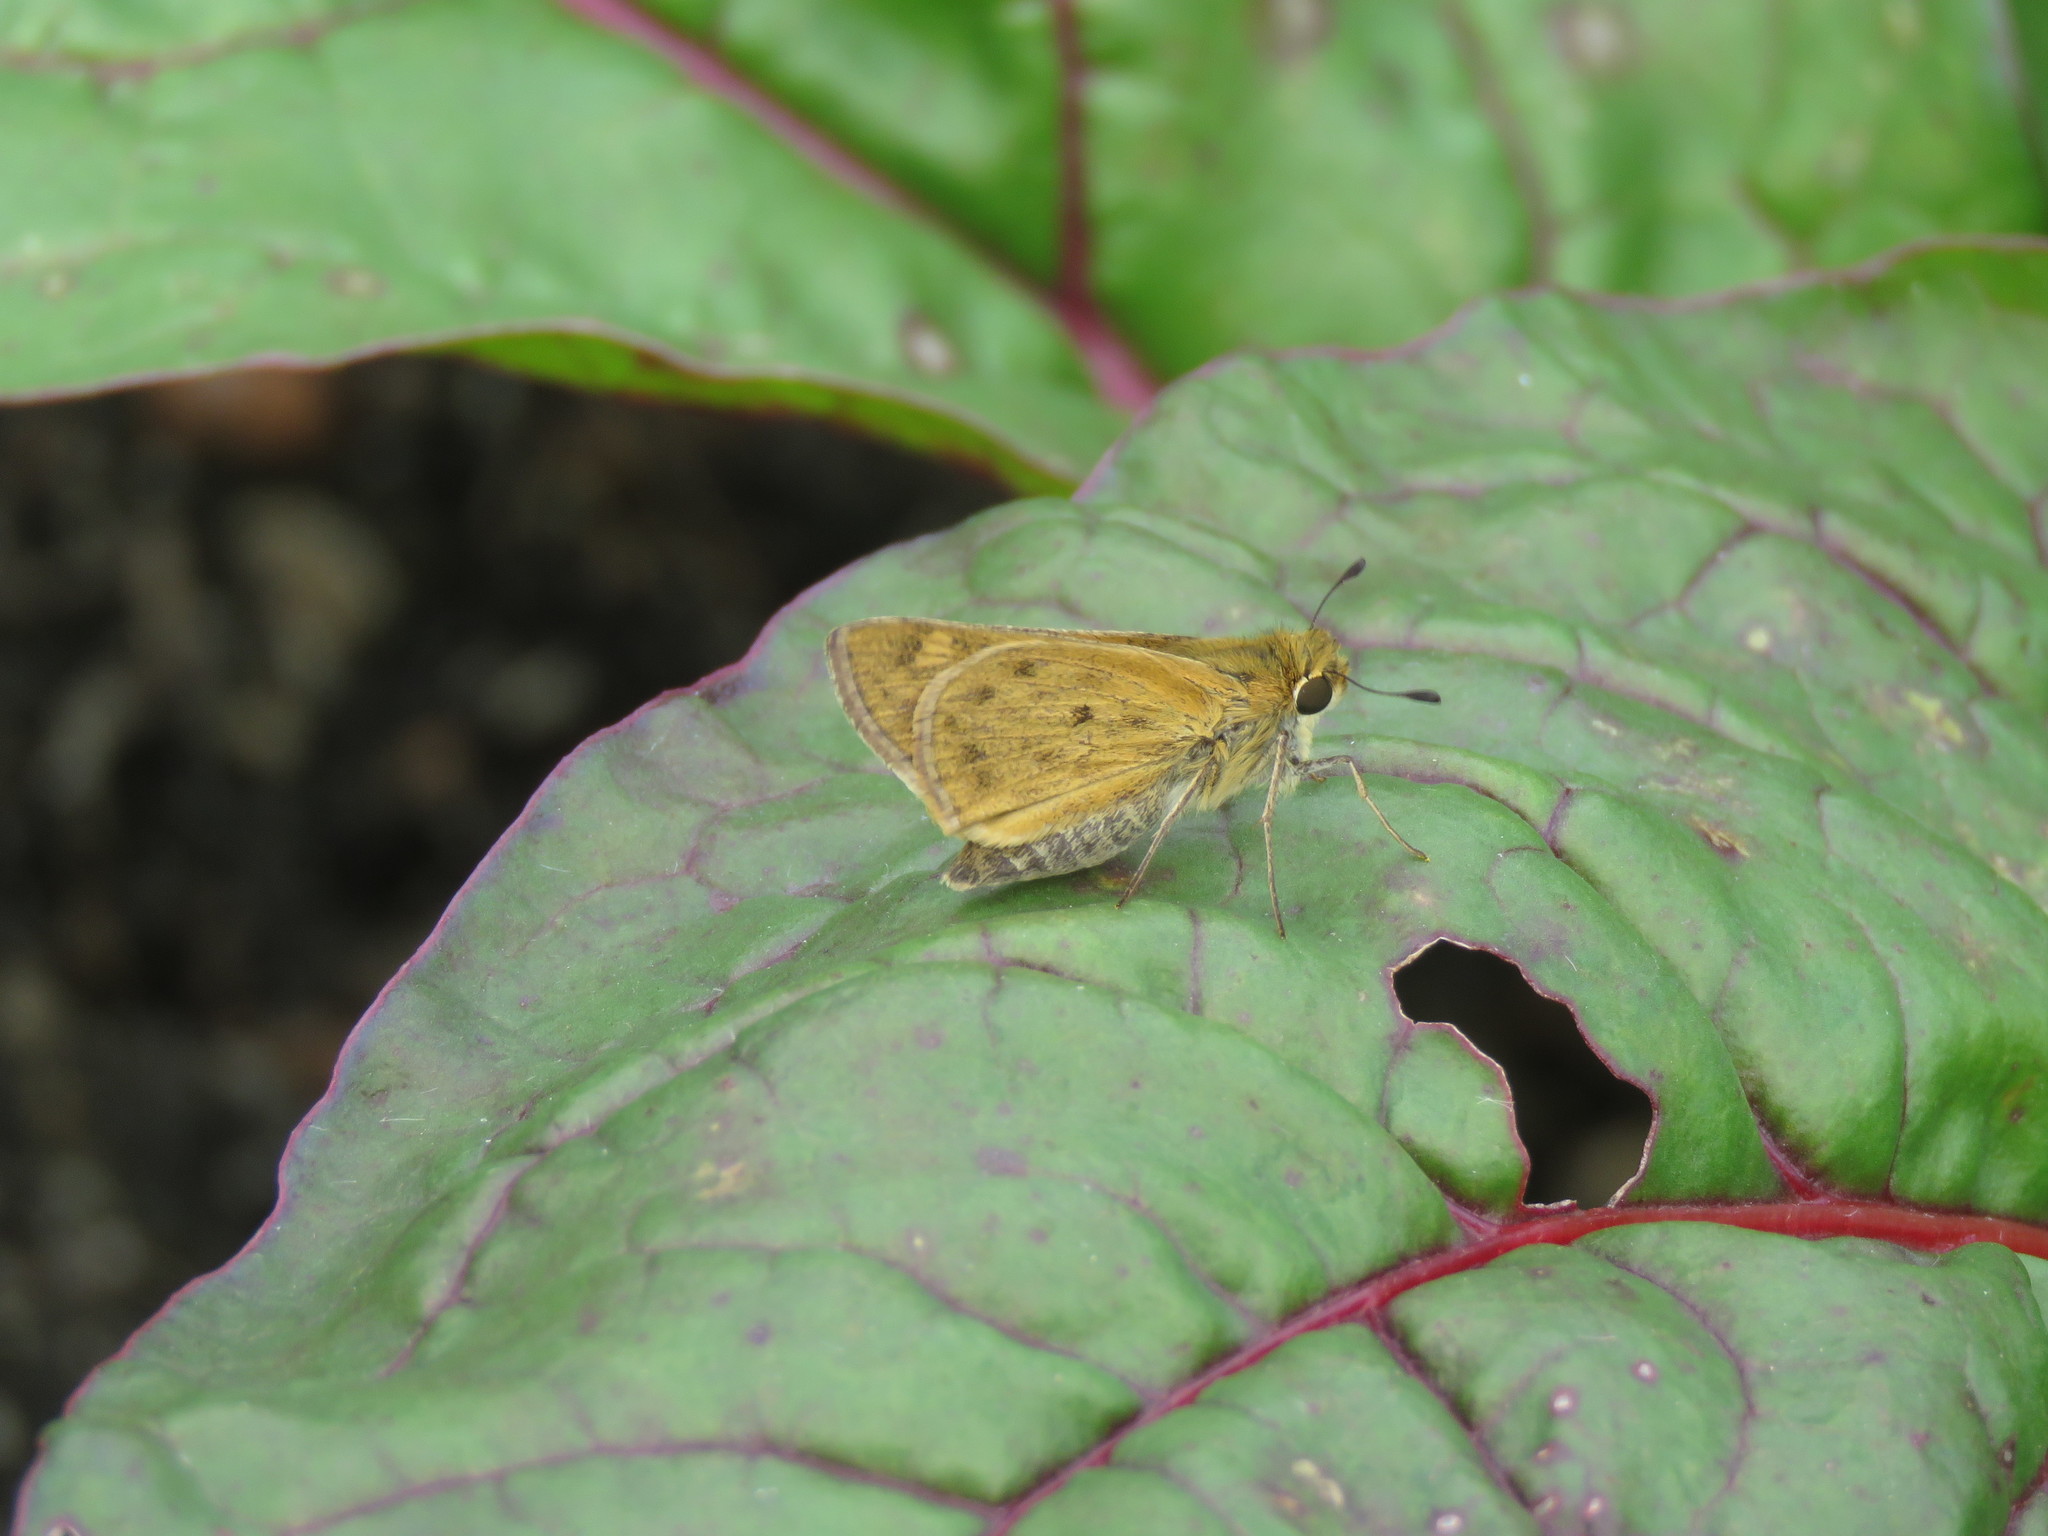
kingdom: Animalia
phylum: Arthropoda
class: Insecta
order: Lepidoptera
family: Hesperiidae
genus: Hylephila
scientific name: Hylephila phyleus
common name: Fiery skipper
